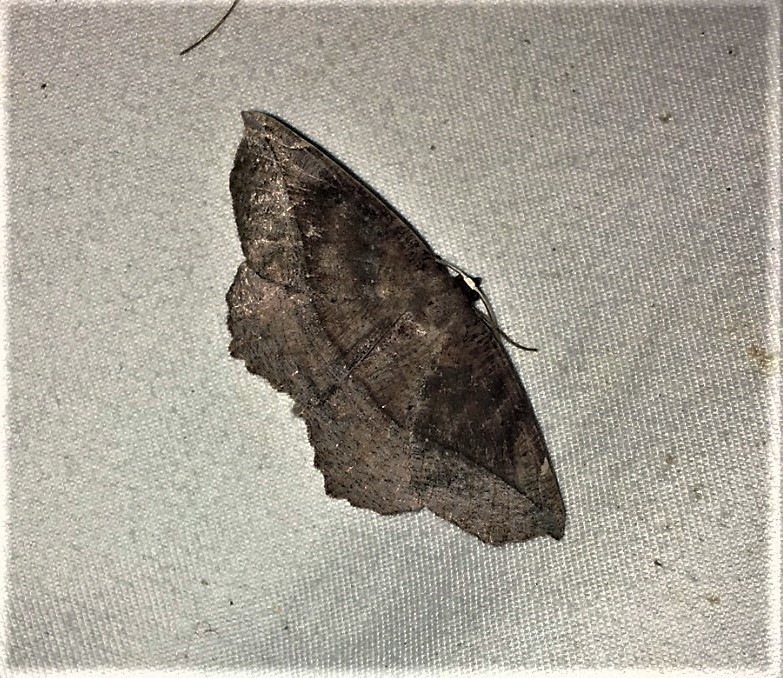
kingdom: Animalia
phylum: Arthropoda
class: Insecta
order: Lepidoptera
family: Geometridae
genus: Eutrapela
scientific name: Eutrapela clemataria
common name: Curved-toothed geometer
